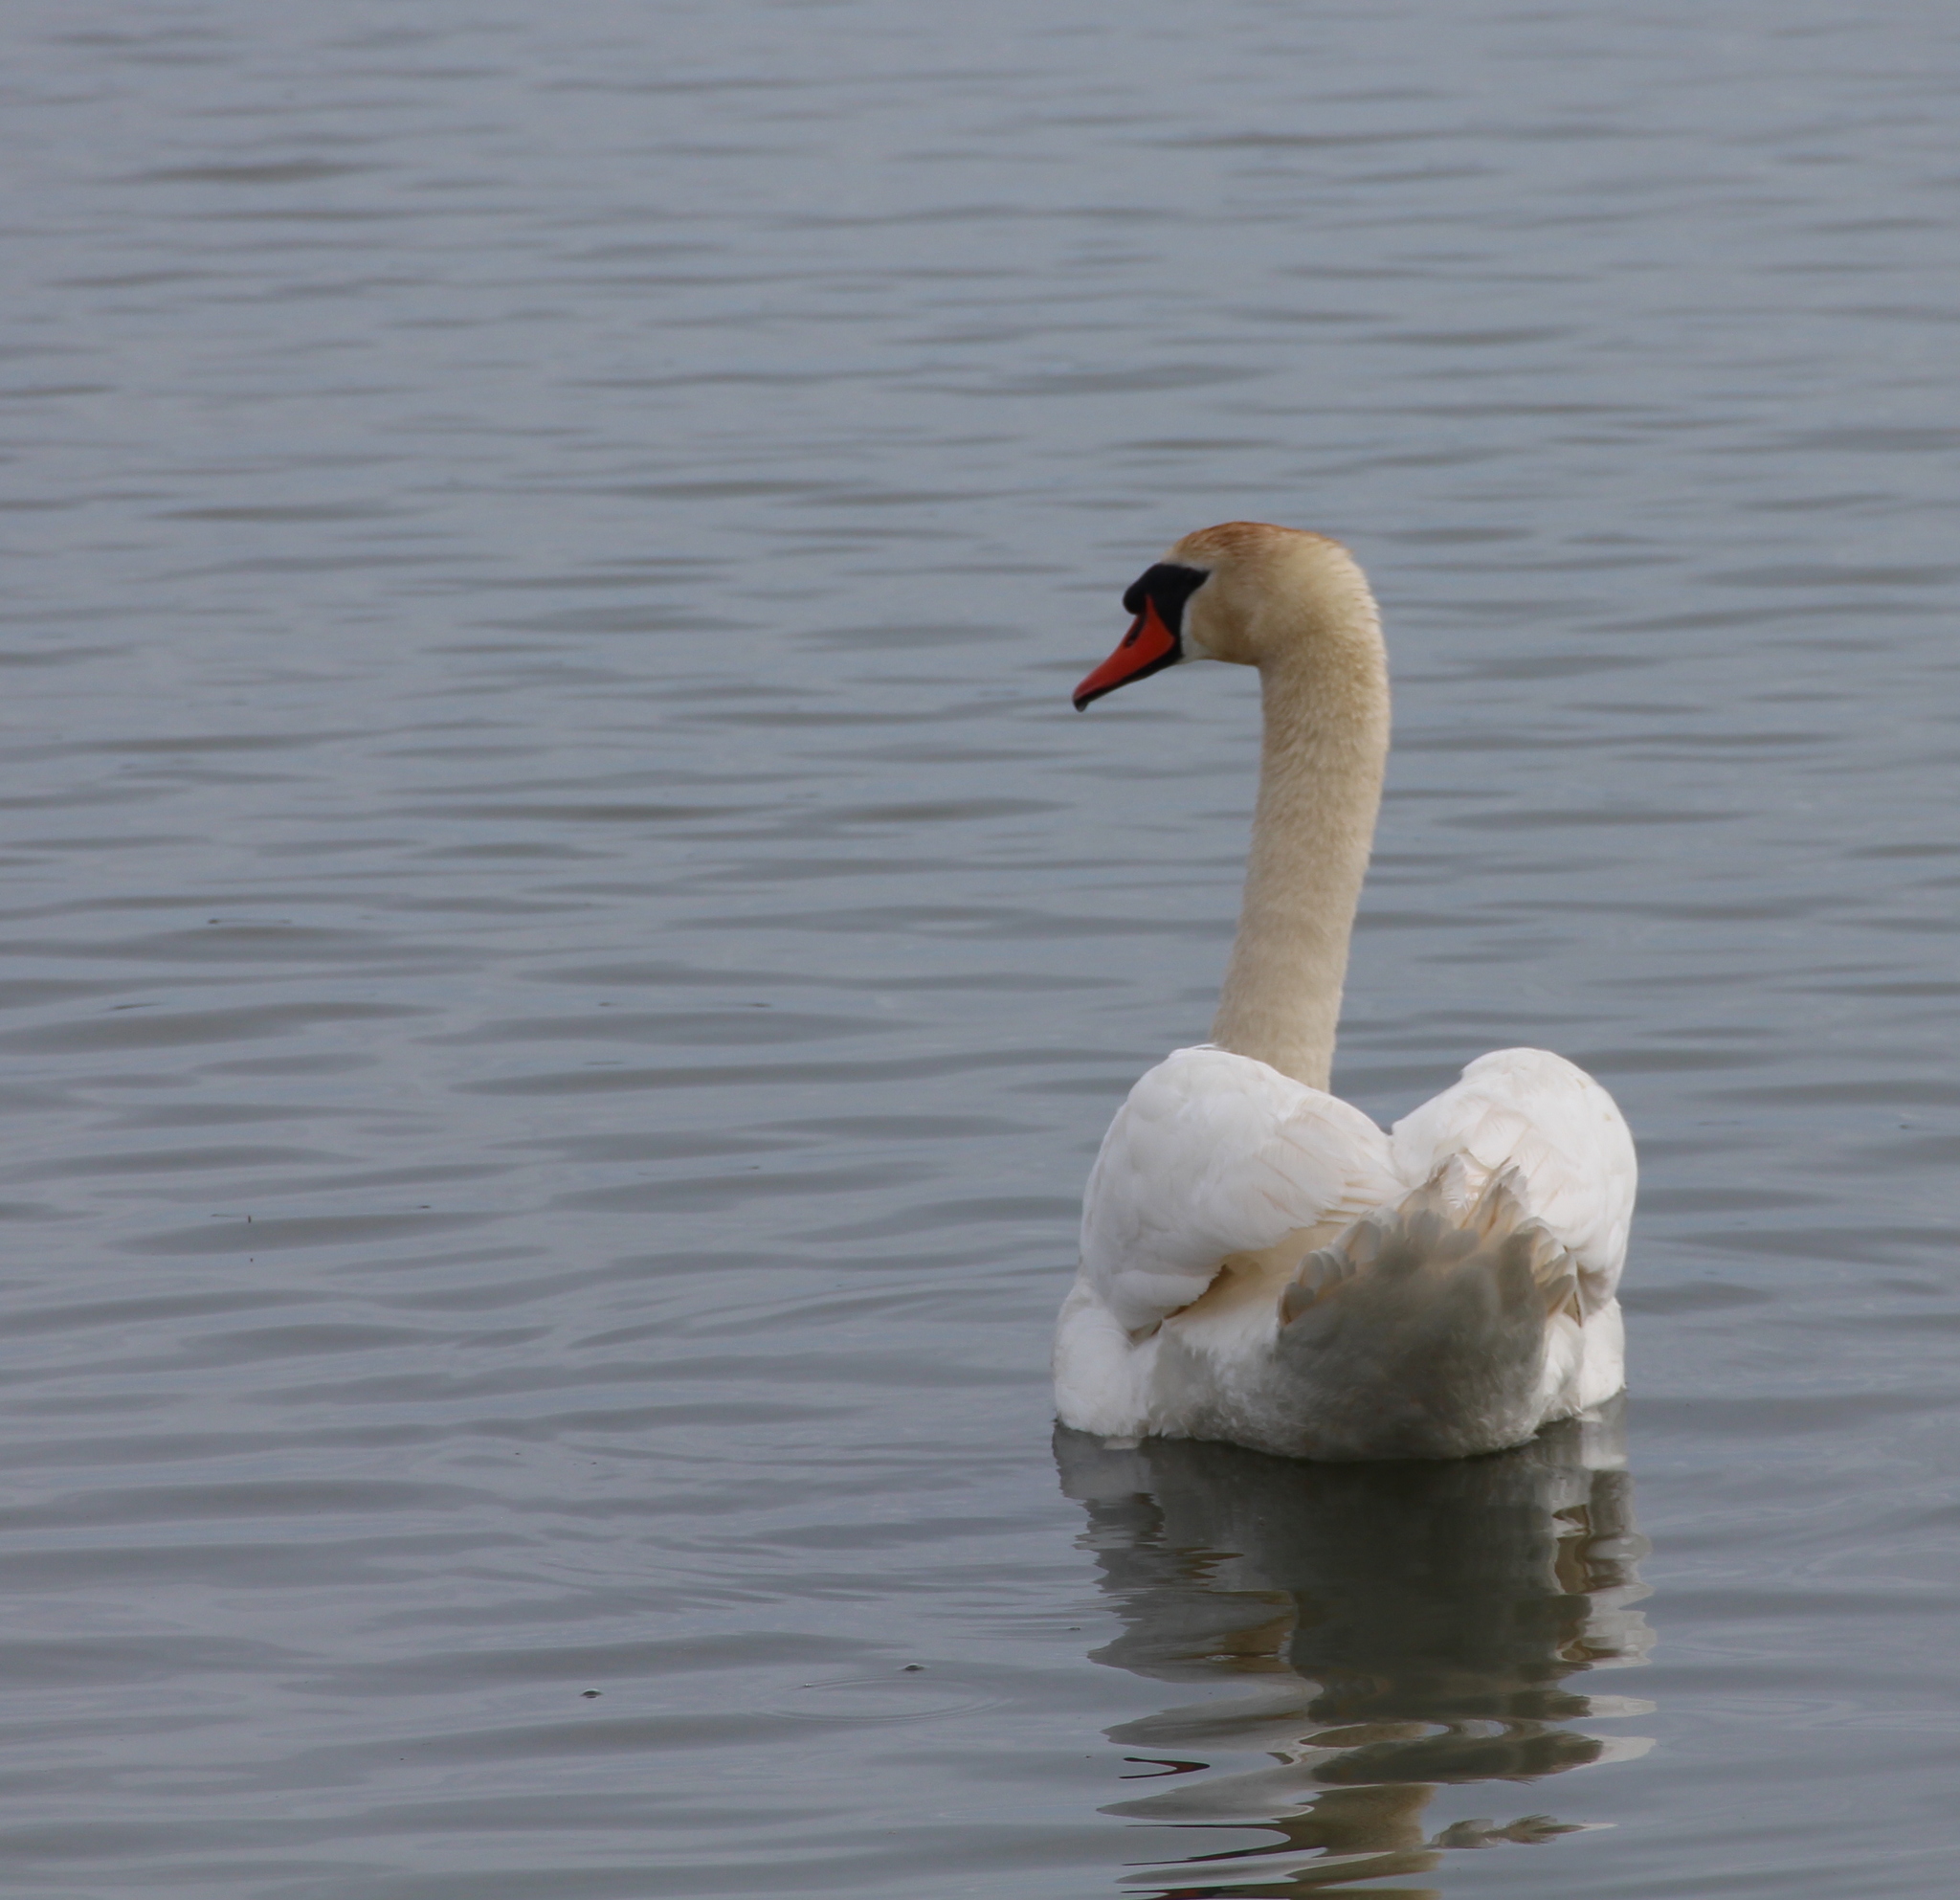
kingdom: Animalia
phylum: Chordata
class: Aves
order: Anseriformes
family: Anatidae
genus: Cygnus
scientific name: Cygnus olor
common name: Mute swan
